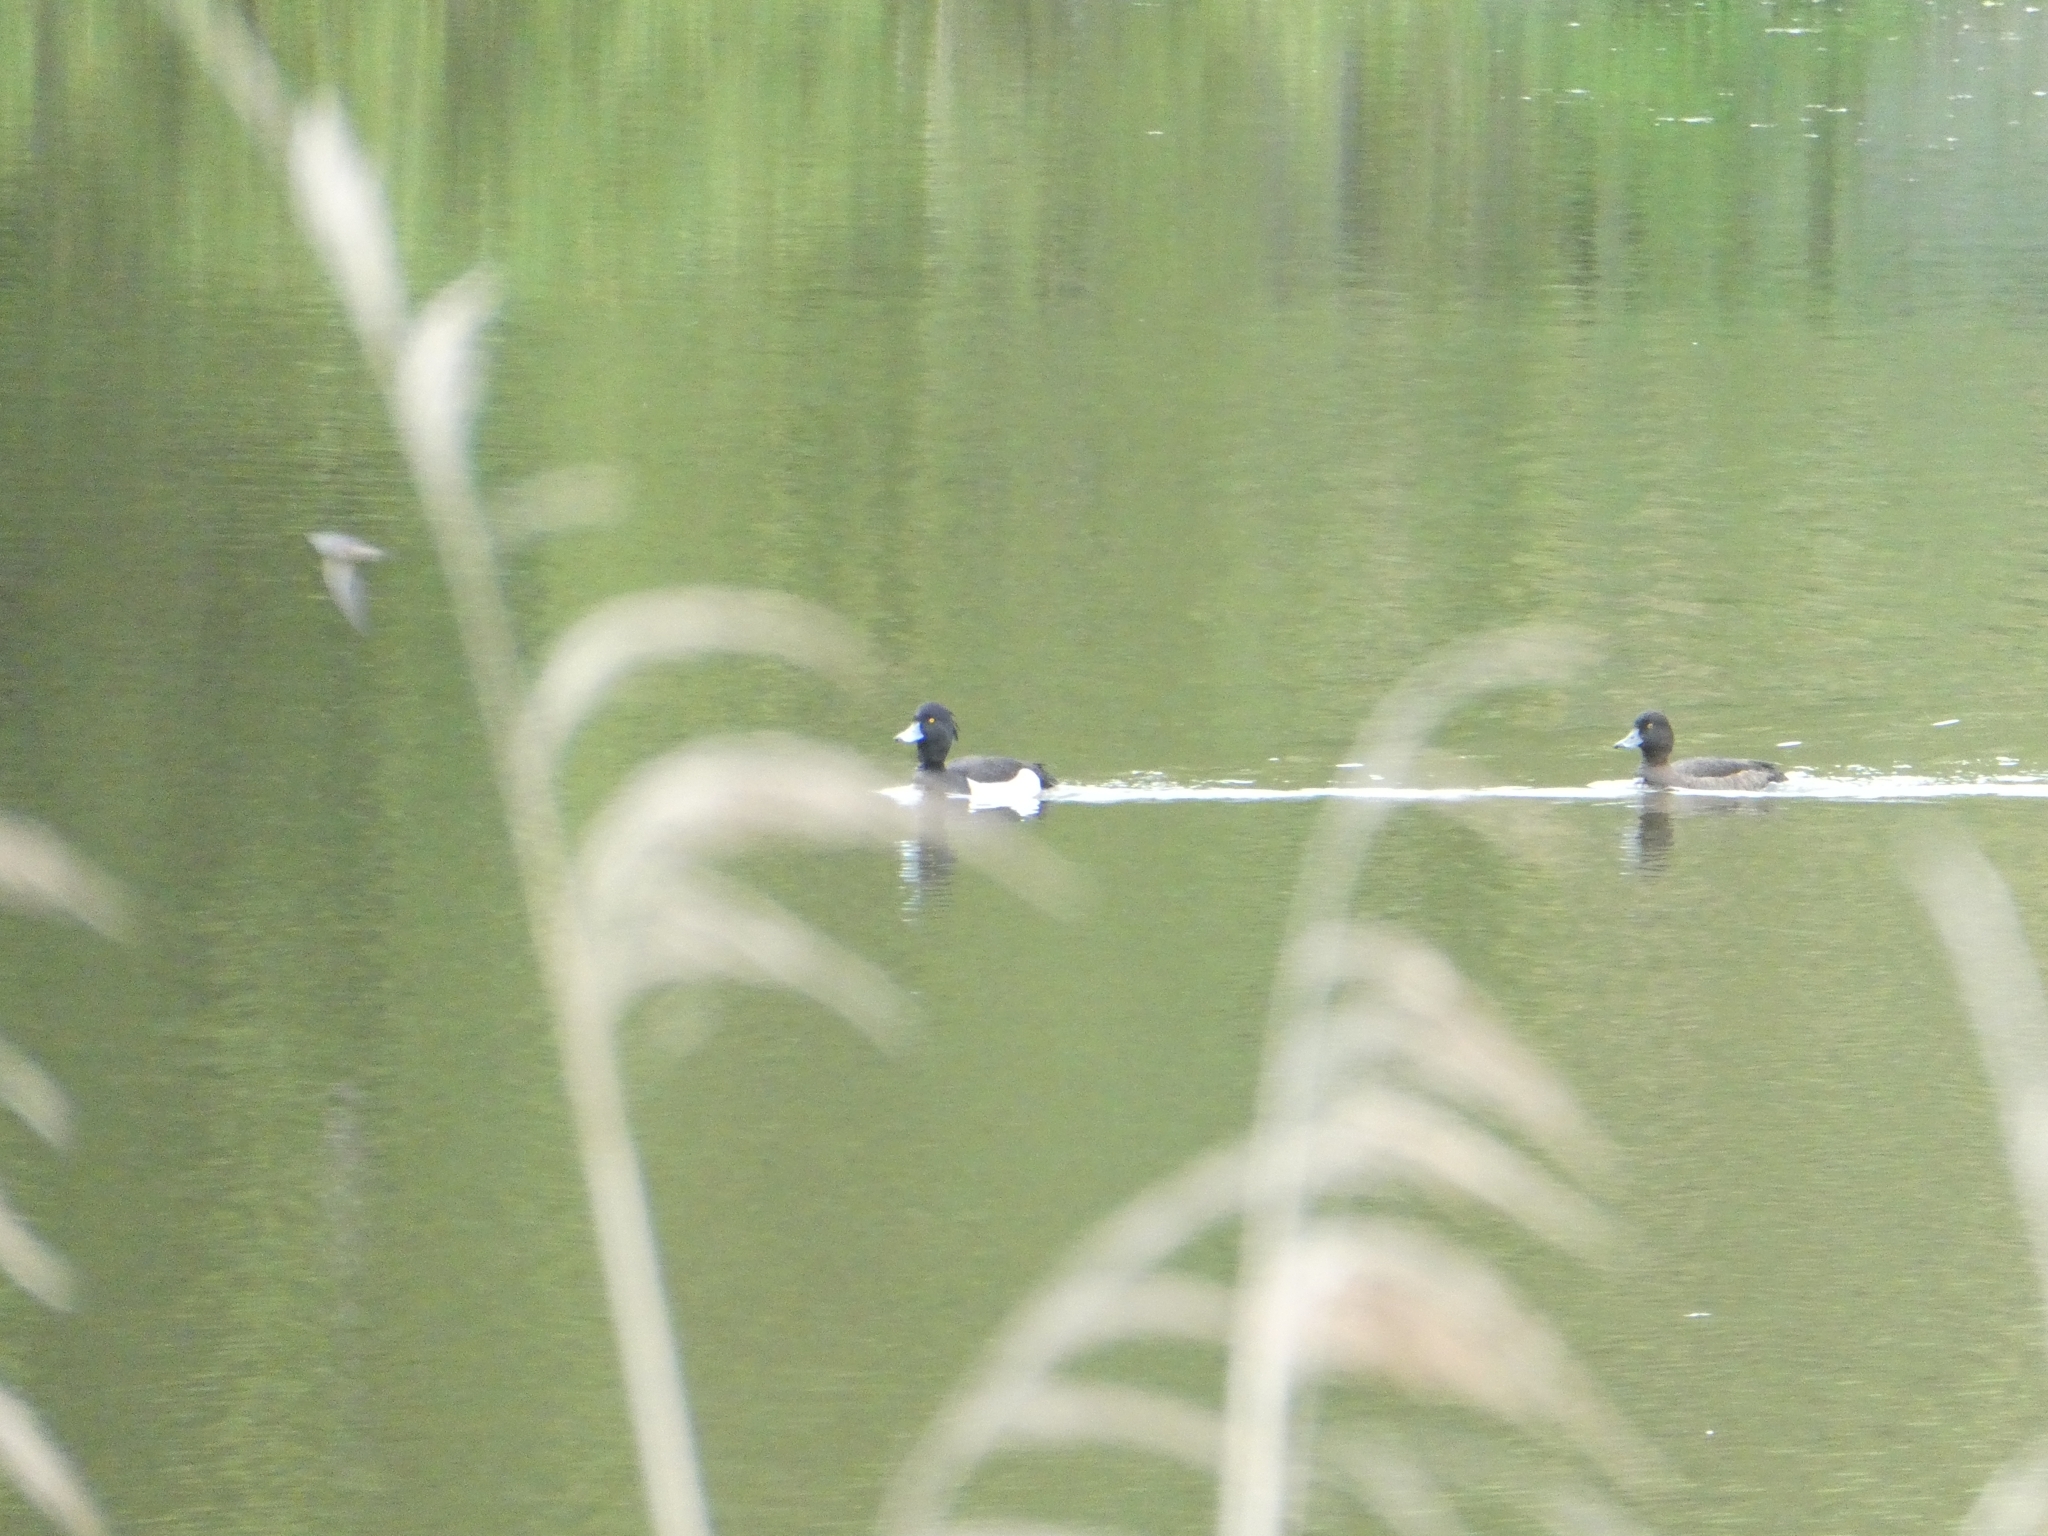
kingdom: Animalia
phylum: Chordata
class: Aves
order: Anseriformes
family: Anatidae
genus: Aythya
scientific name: Aythya fuligula
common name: Tufted duck
